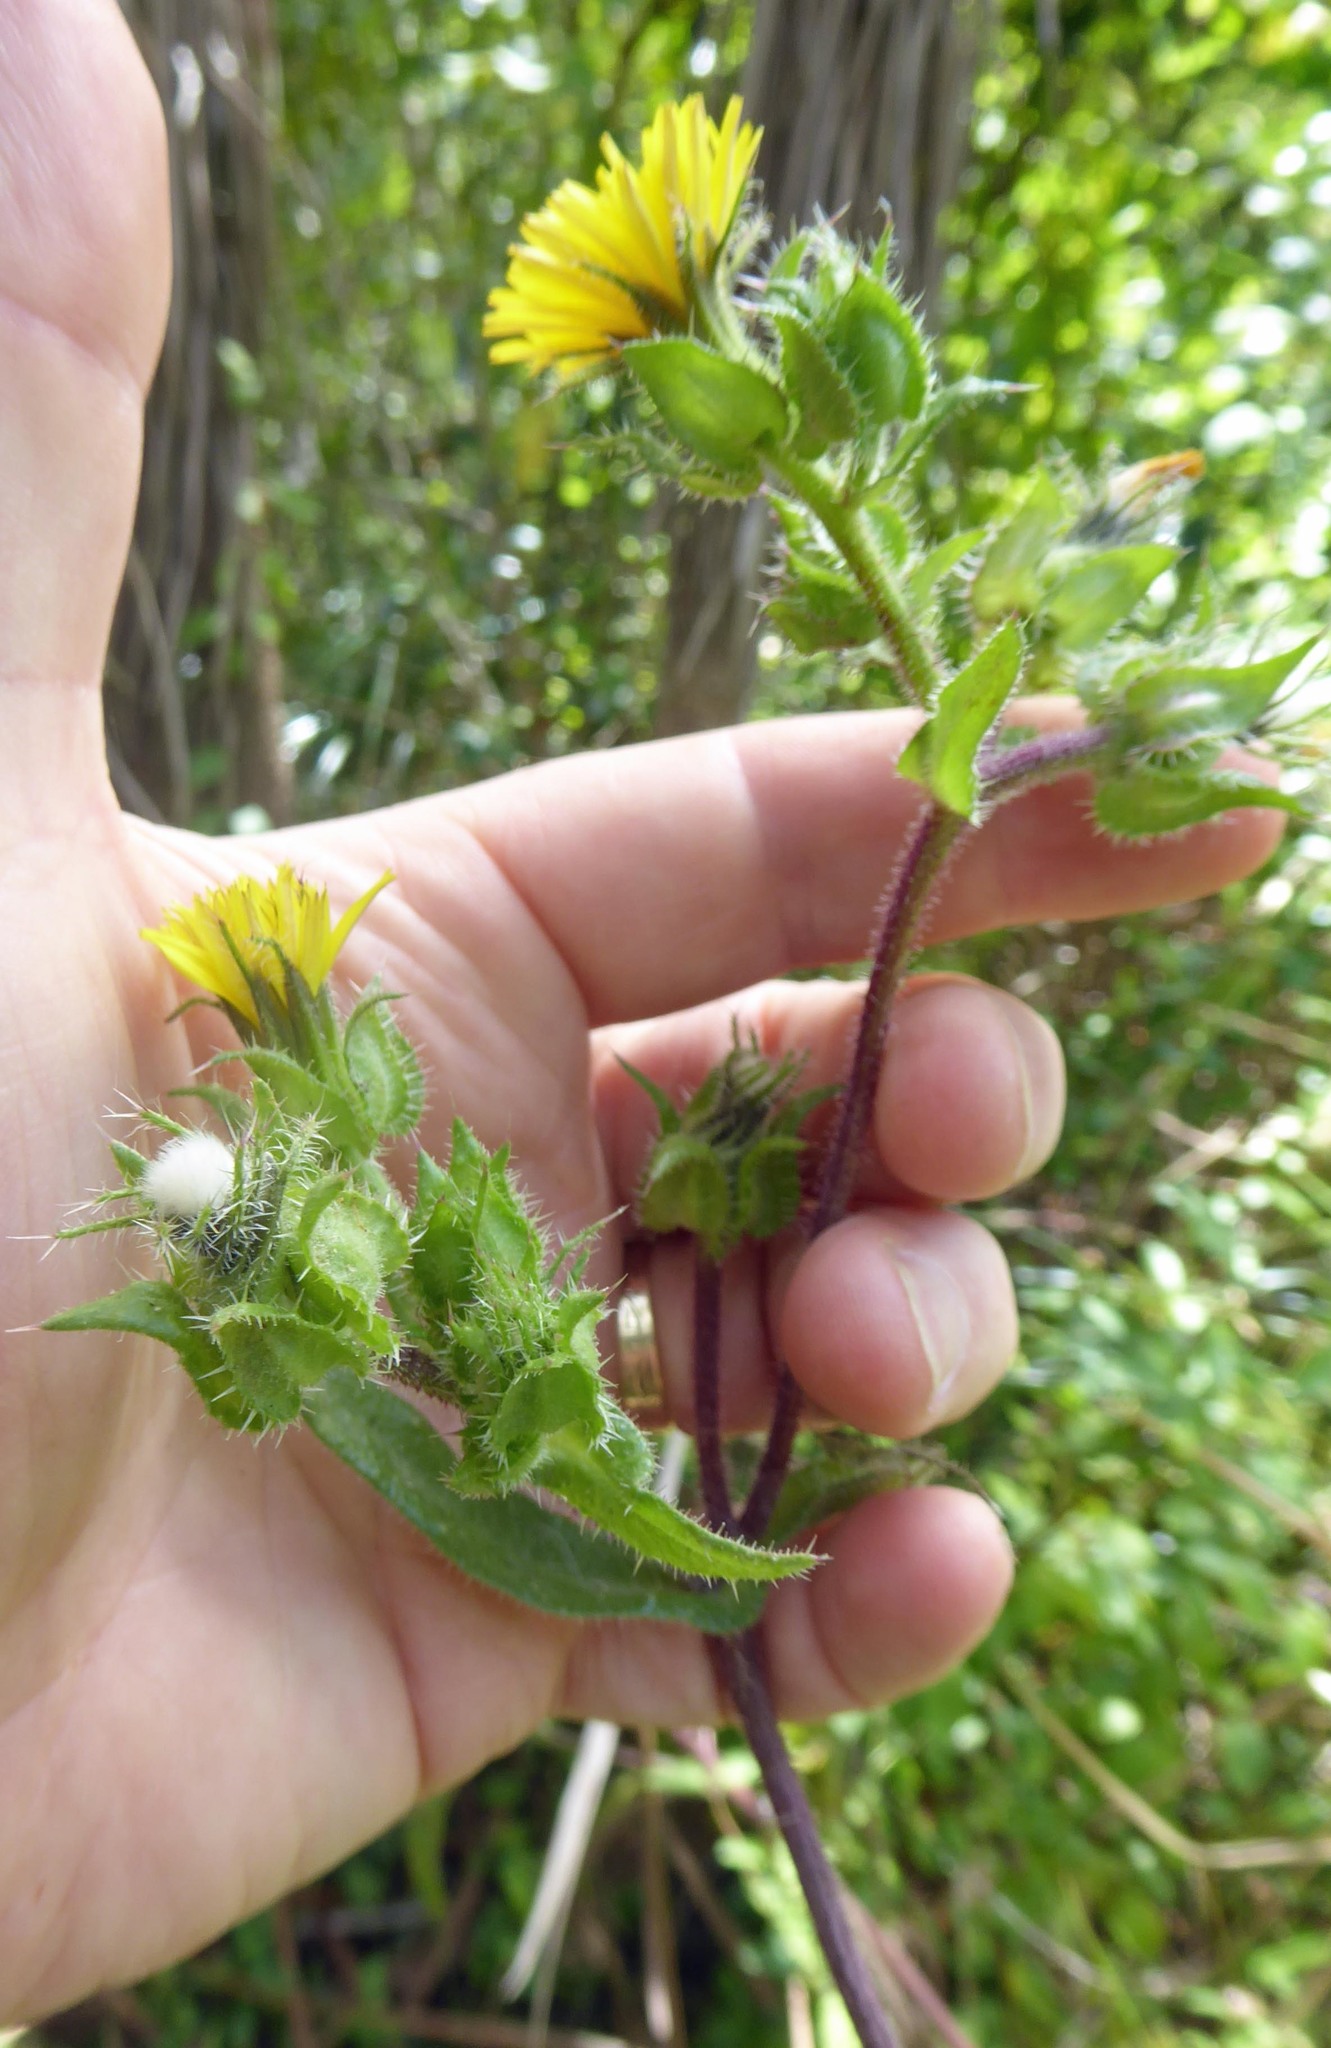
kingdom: Plantae
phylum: Tracheophyta
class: Magnoliopsida
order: Asterales
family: Asteraceae
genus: Helminthotheca
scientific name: Helminthotheca echioides
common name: Ox-tongue
